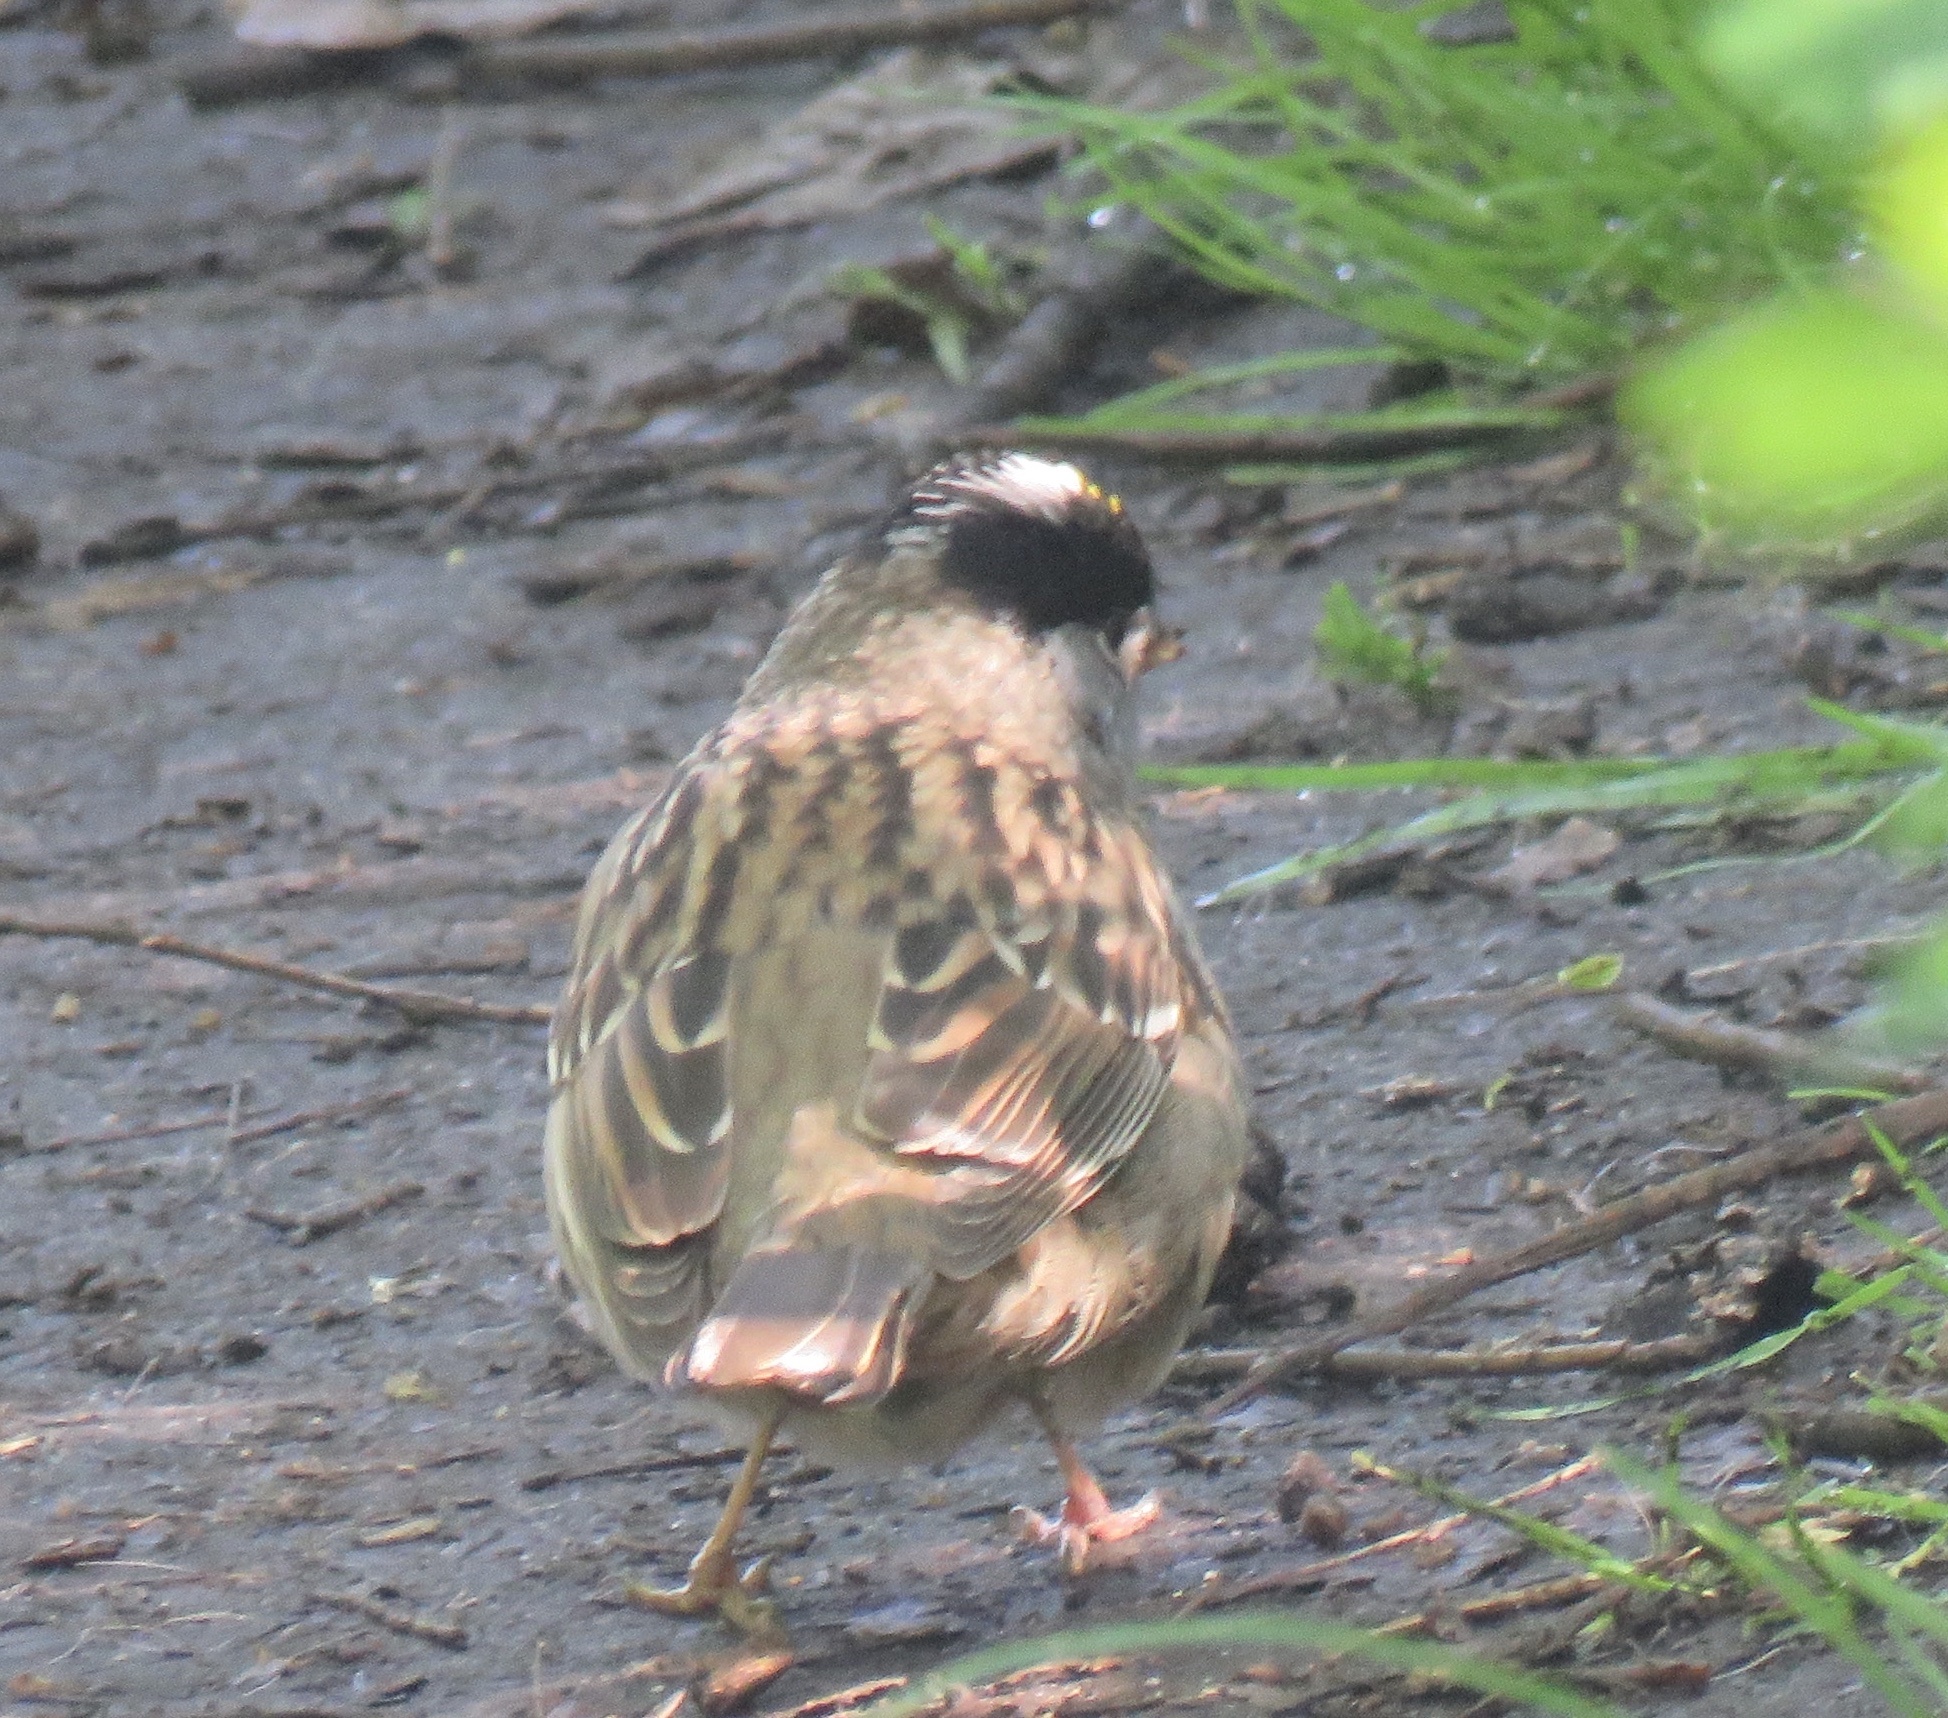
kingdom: Animalia
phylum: Chordata
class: Aves
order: Passeriformes
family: Passerellidae
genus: Zonotrichia
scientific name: Zonotrichia atricapilla
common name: Golden-crowned sparrow
